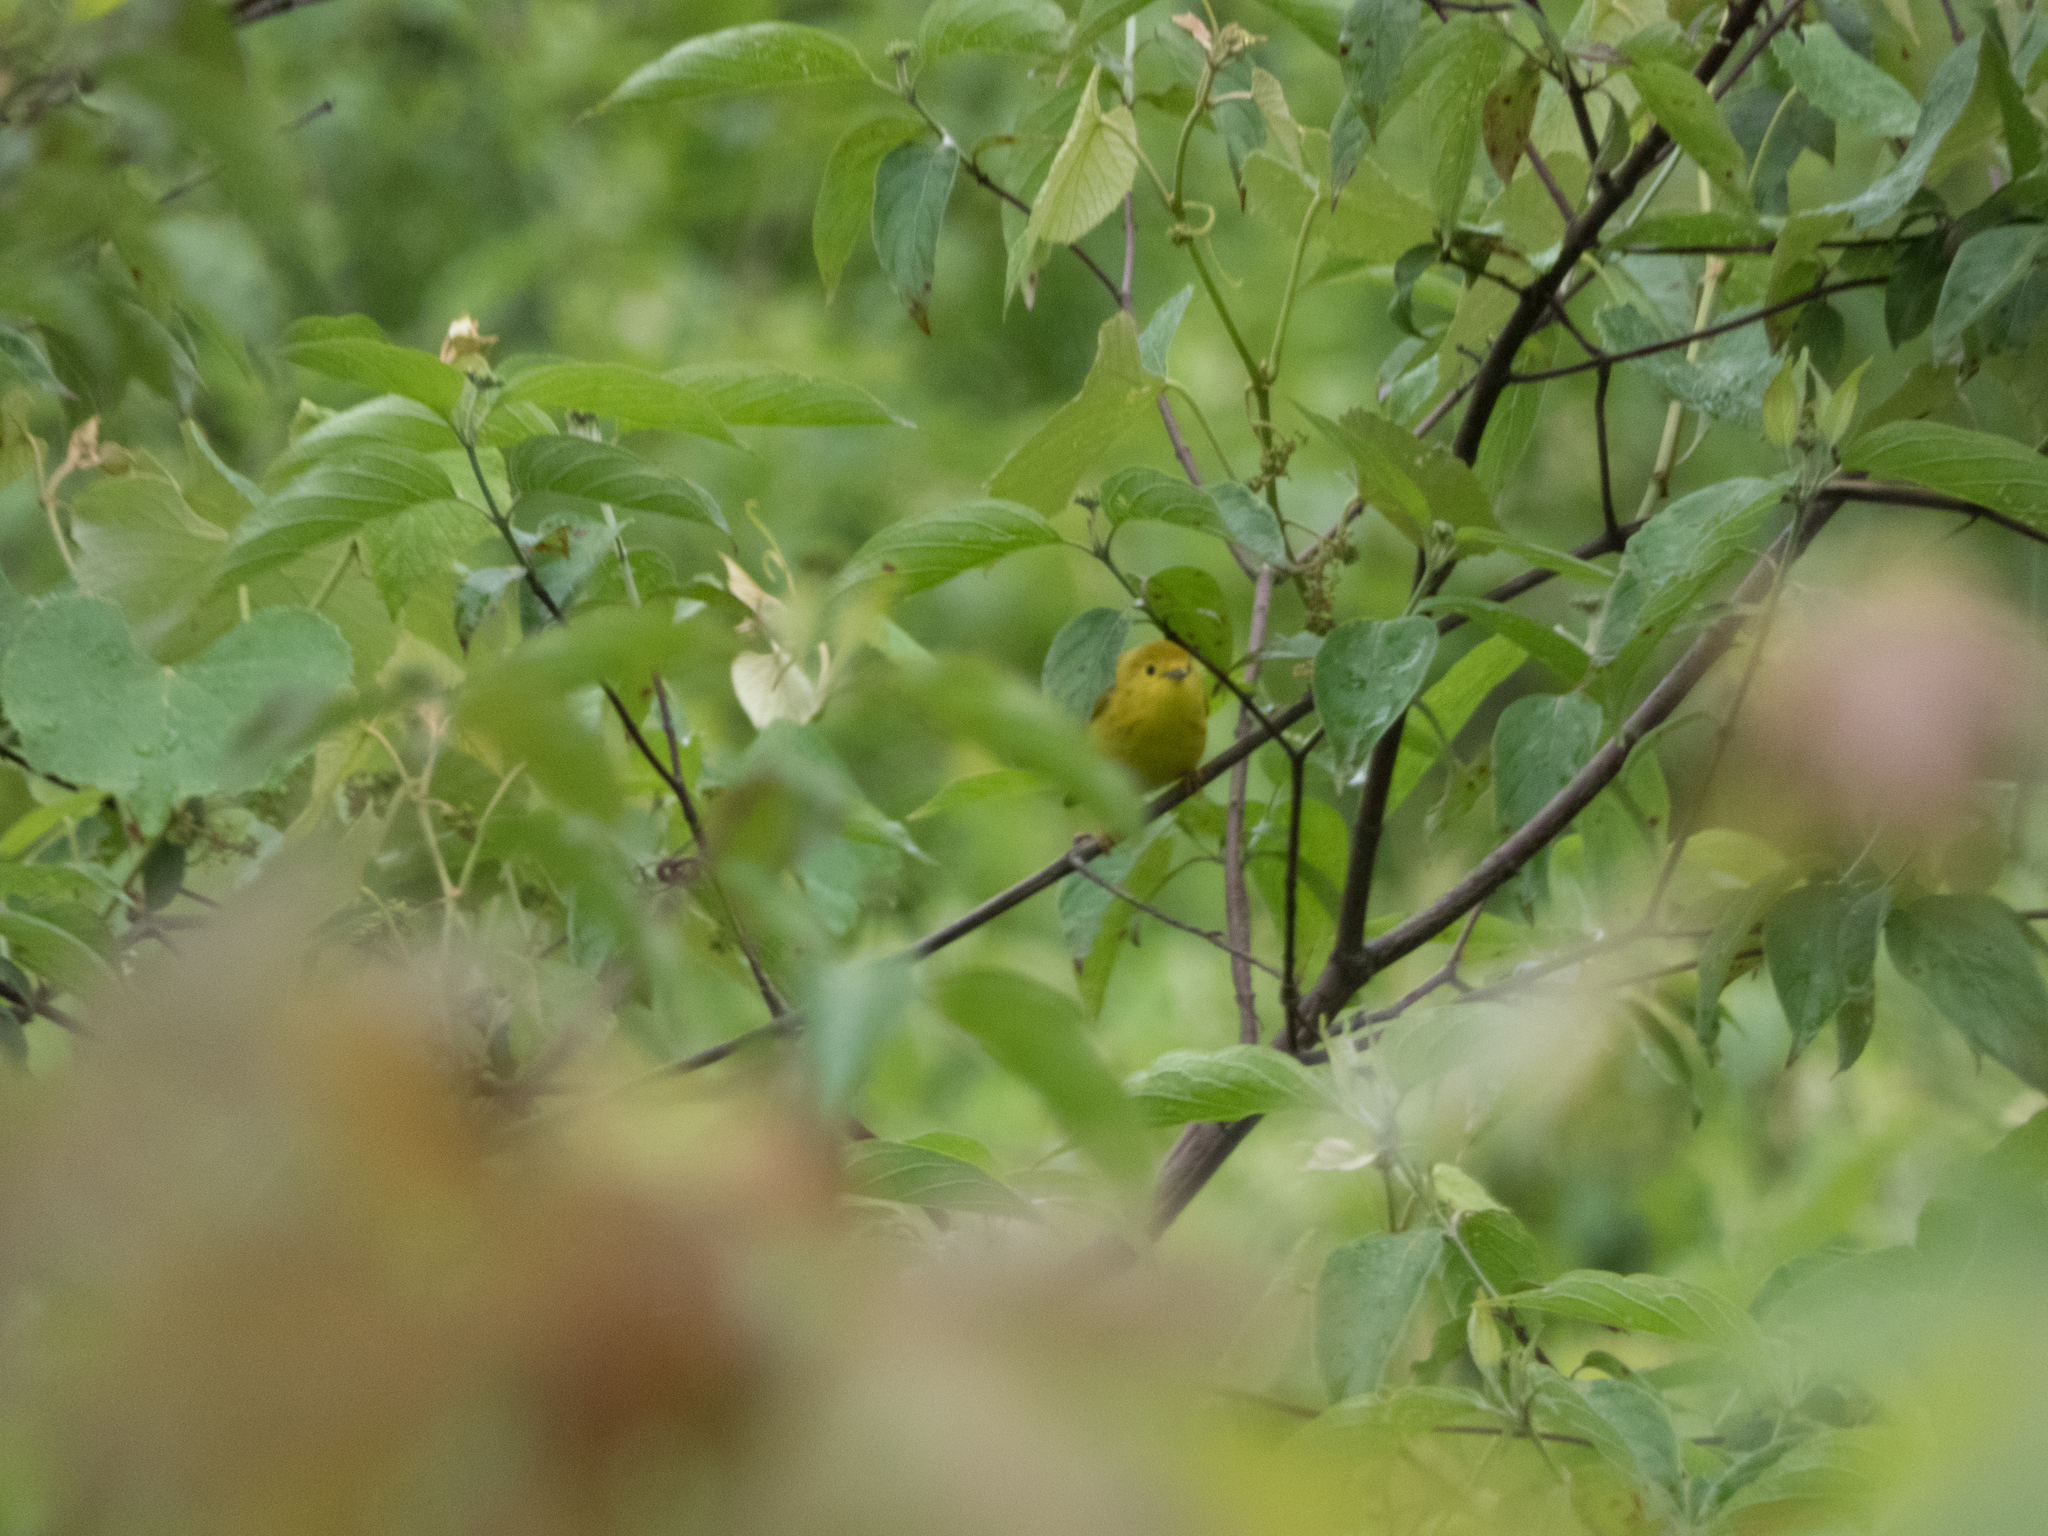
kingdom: Animalia
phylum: Chordata
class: Aves
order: Passeriformes
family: Parulidae
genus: Setophaga
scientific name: Setophaga petechia
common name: Yellow warbler
